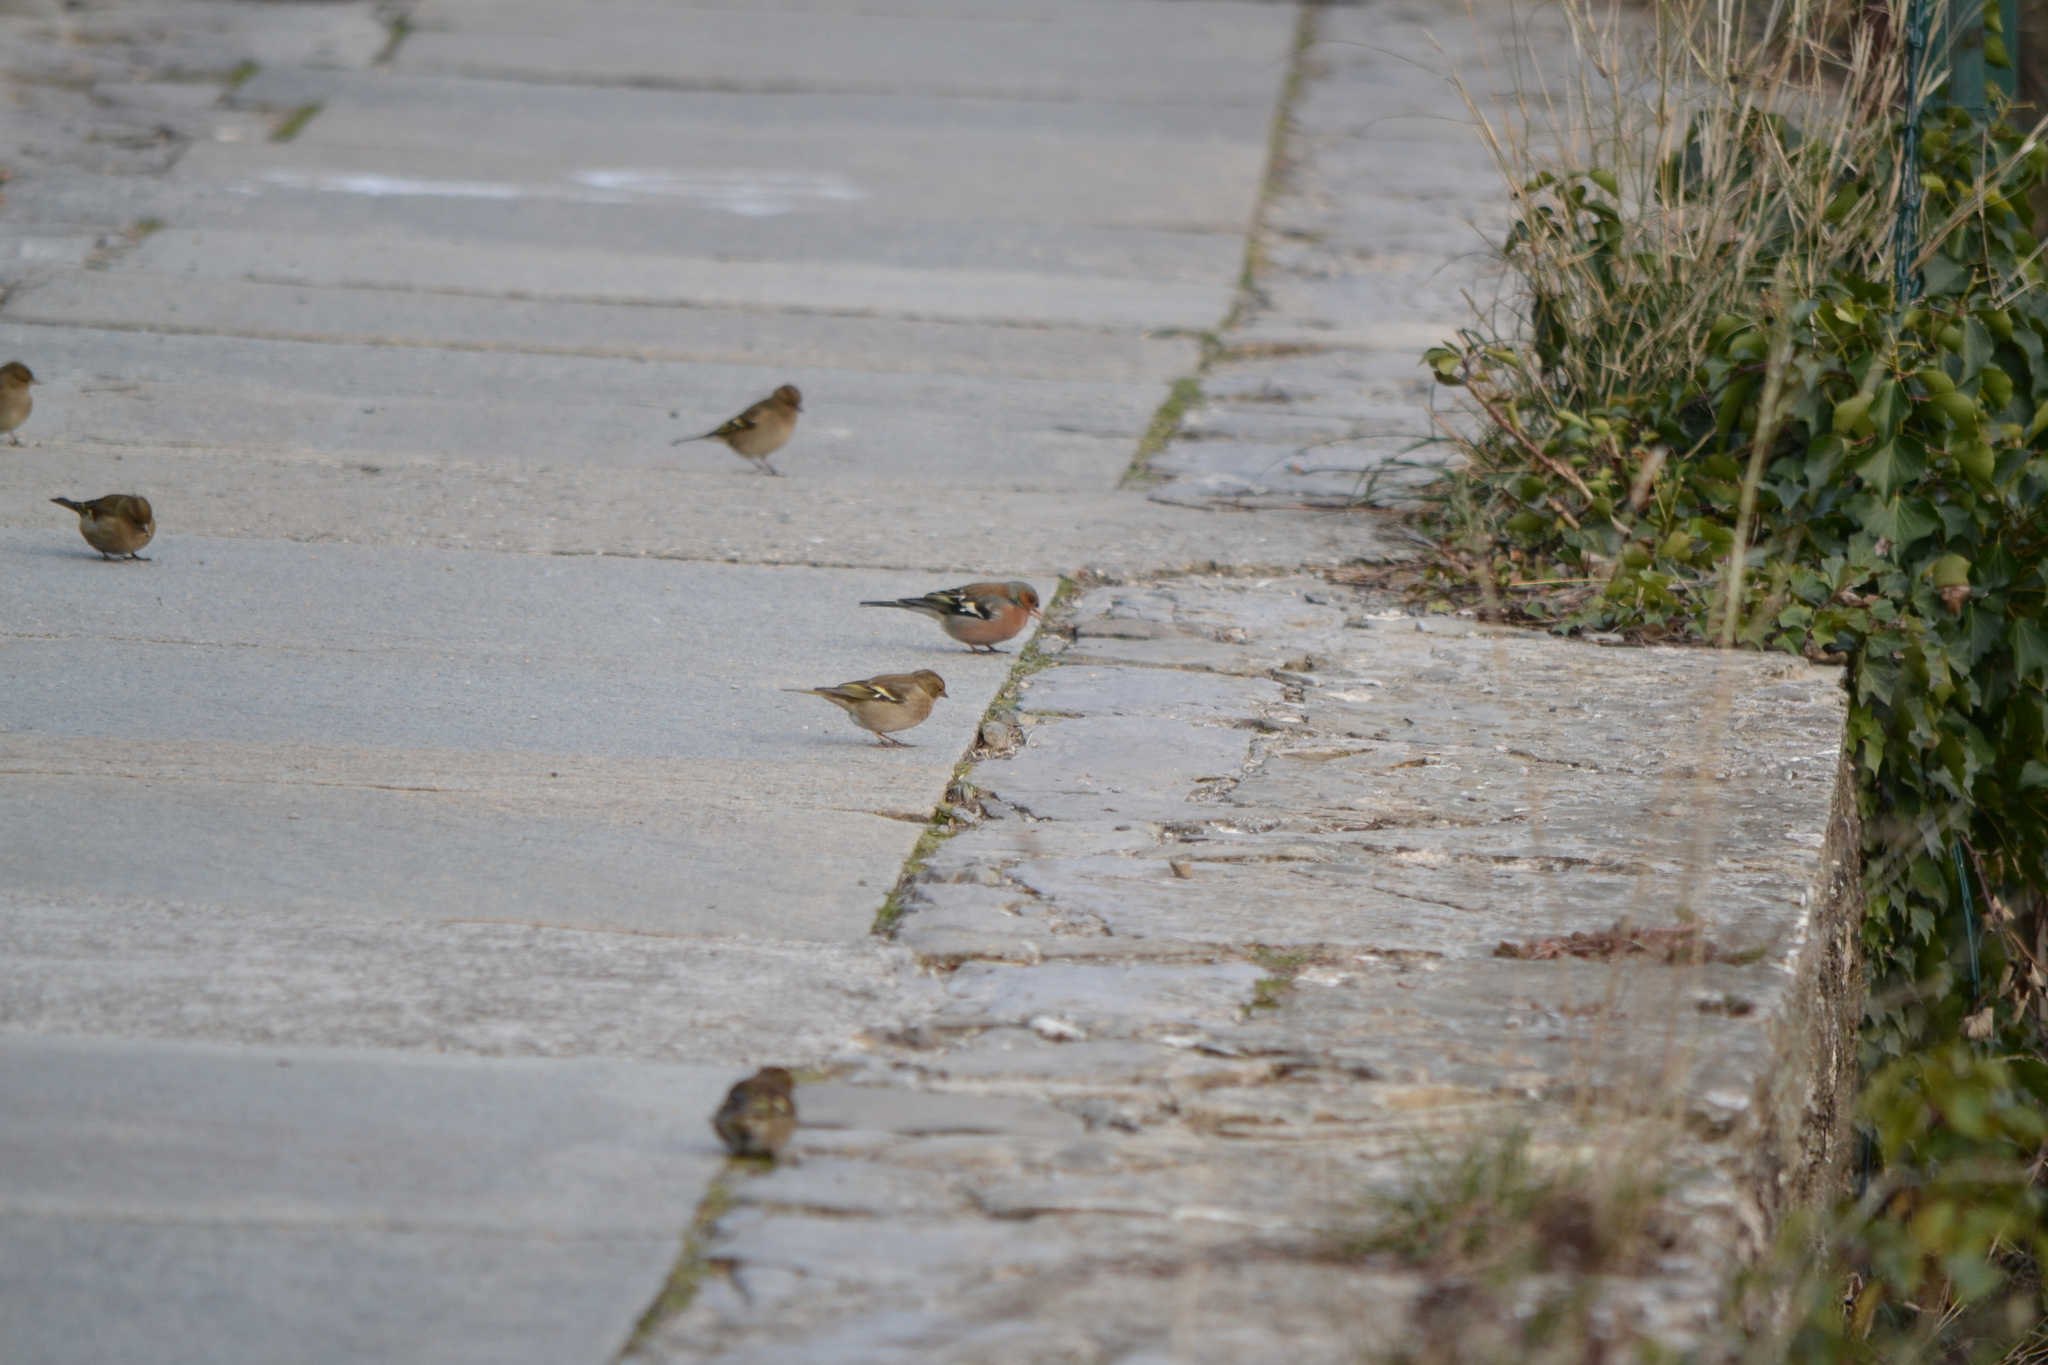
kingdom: Animalia
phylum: Chordata
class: Aves
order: Passeriformes
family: Fringillidae
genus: Fringilla
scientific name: Fringilla coelebs
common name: Common chaffinch
